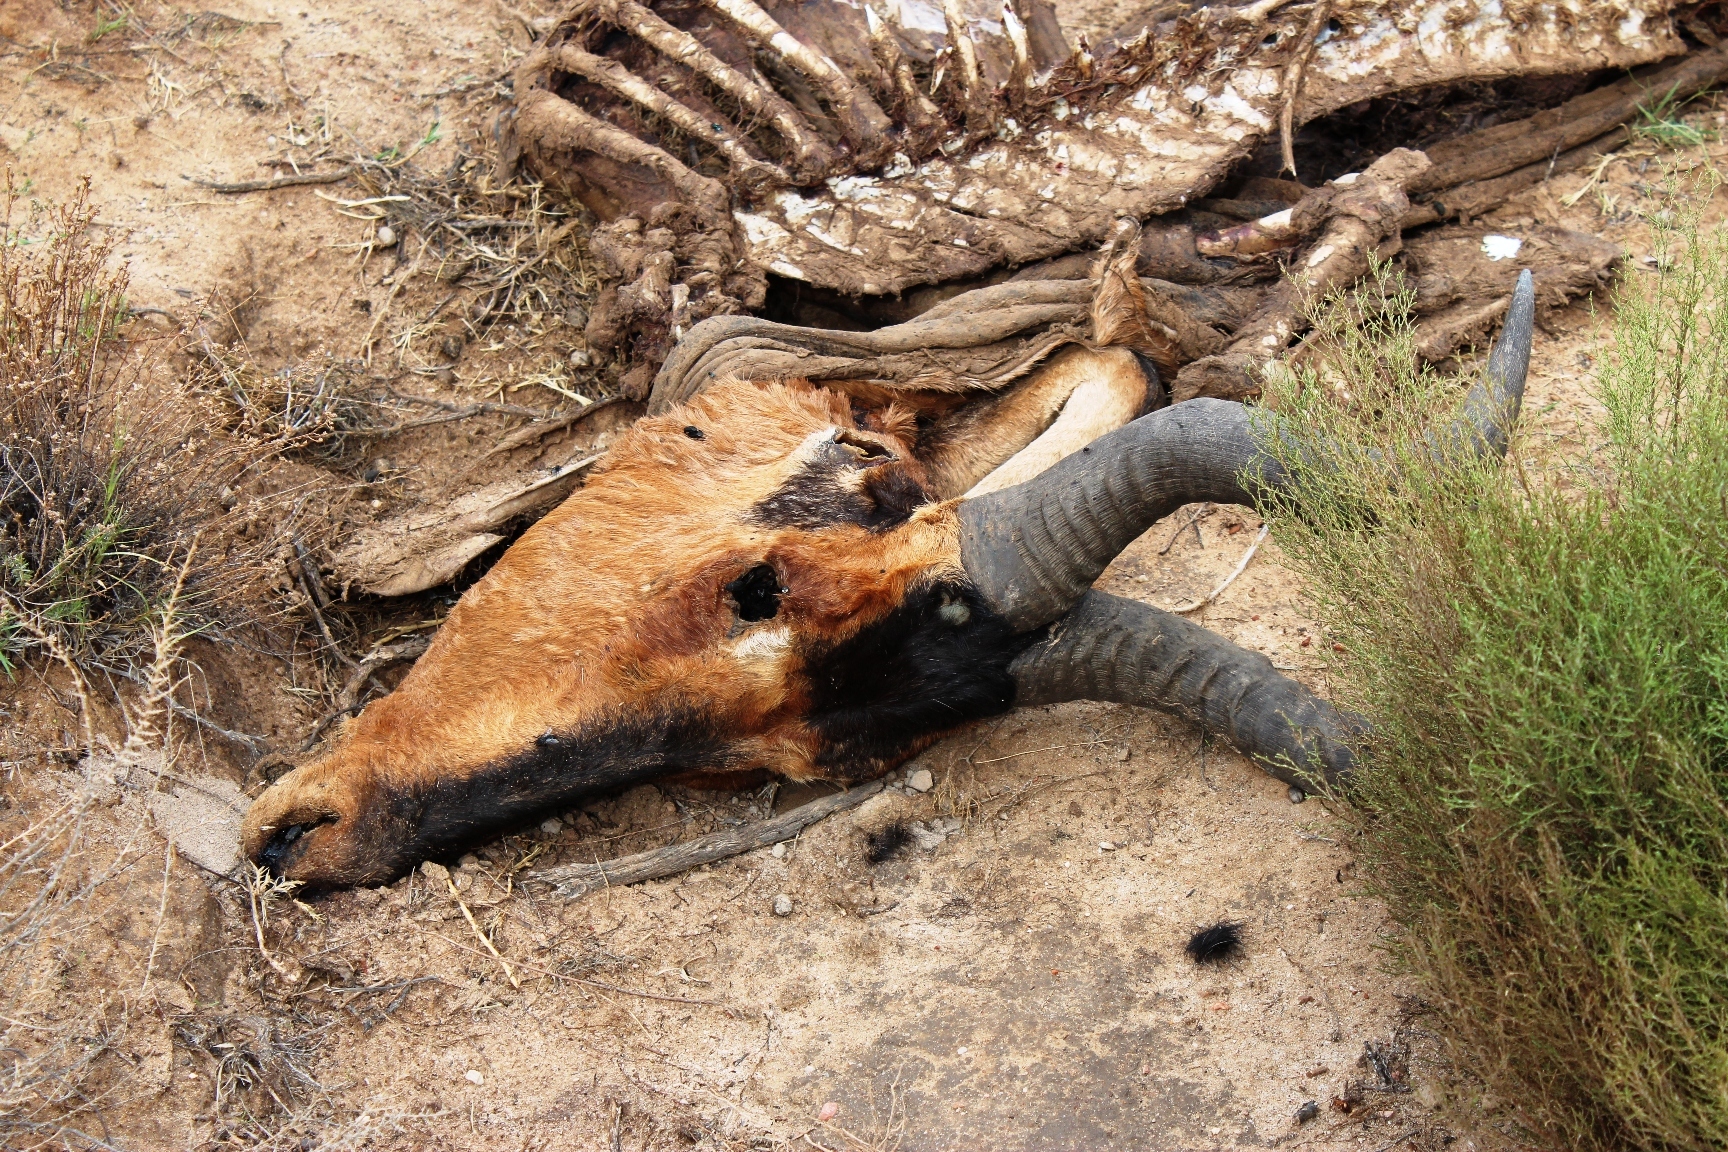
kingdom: Animalia
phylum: Chordata
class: Mammalia
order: Artiodactyla
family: Bovidae
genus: Alcelaphus
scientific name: Alcelaphus caama
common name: Red hartebeest
